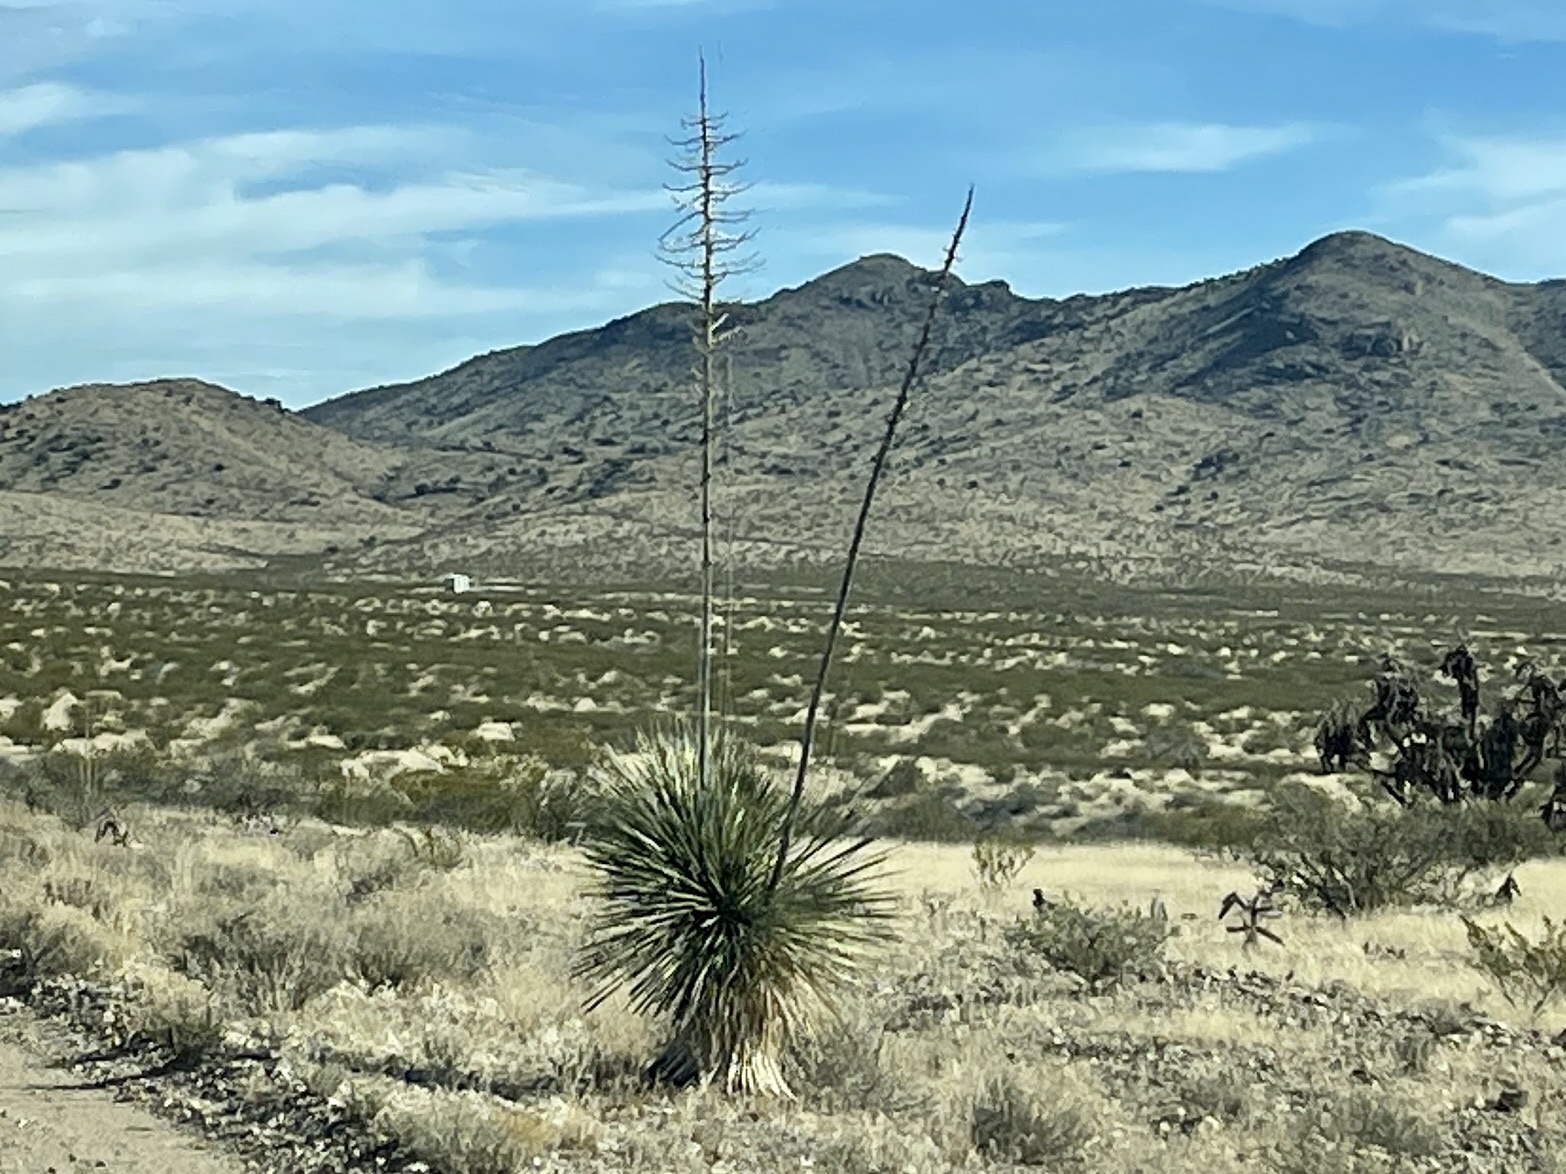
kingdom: Plantae
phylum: Tracheophyta
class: Liliopsida
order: Asparagales
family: Asparagaceae
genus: Yucca
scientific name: Yucca elata
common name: Palmella
